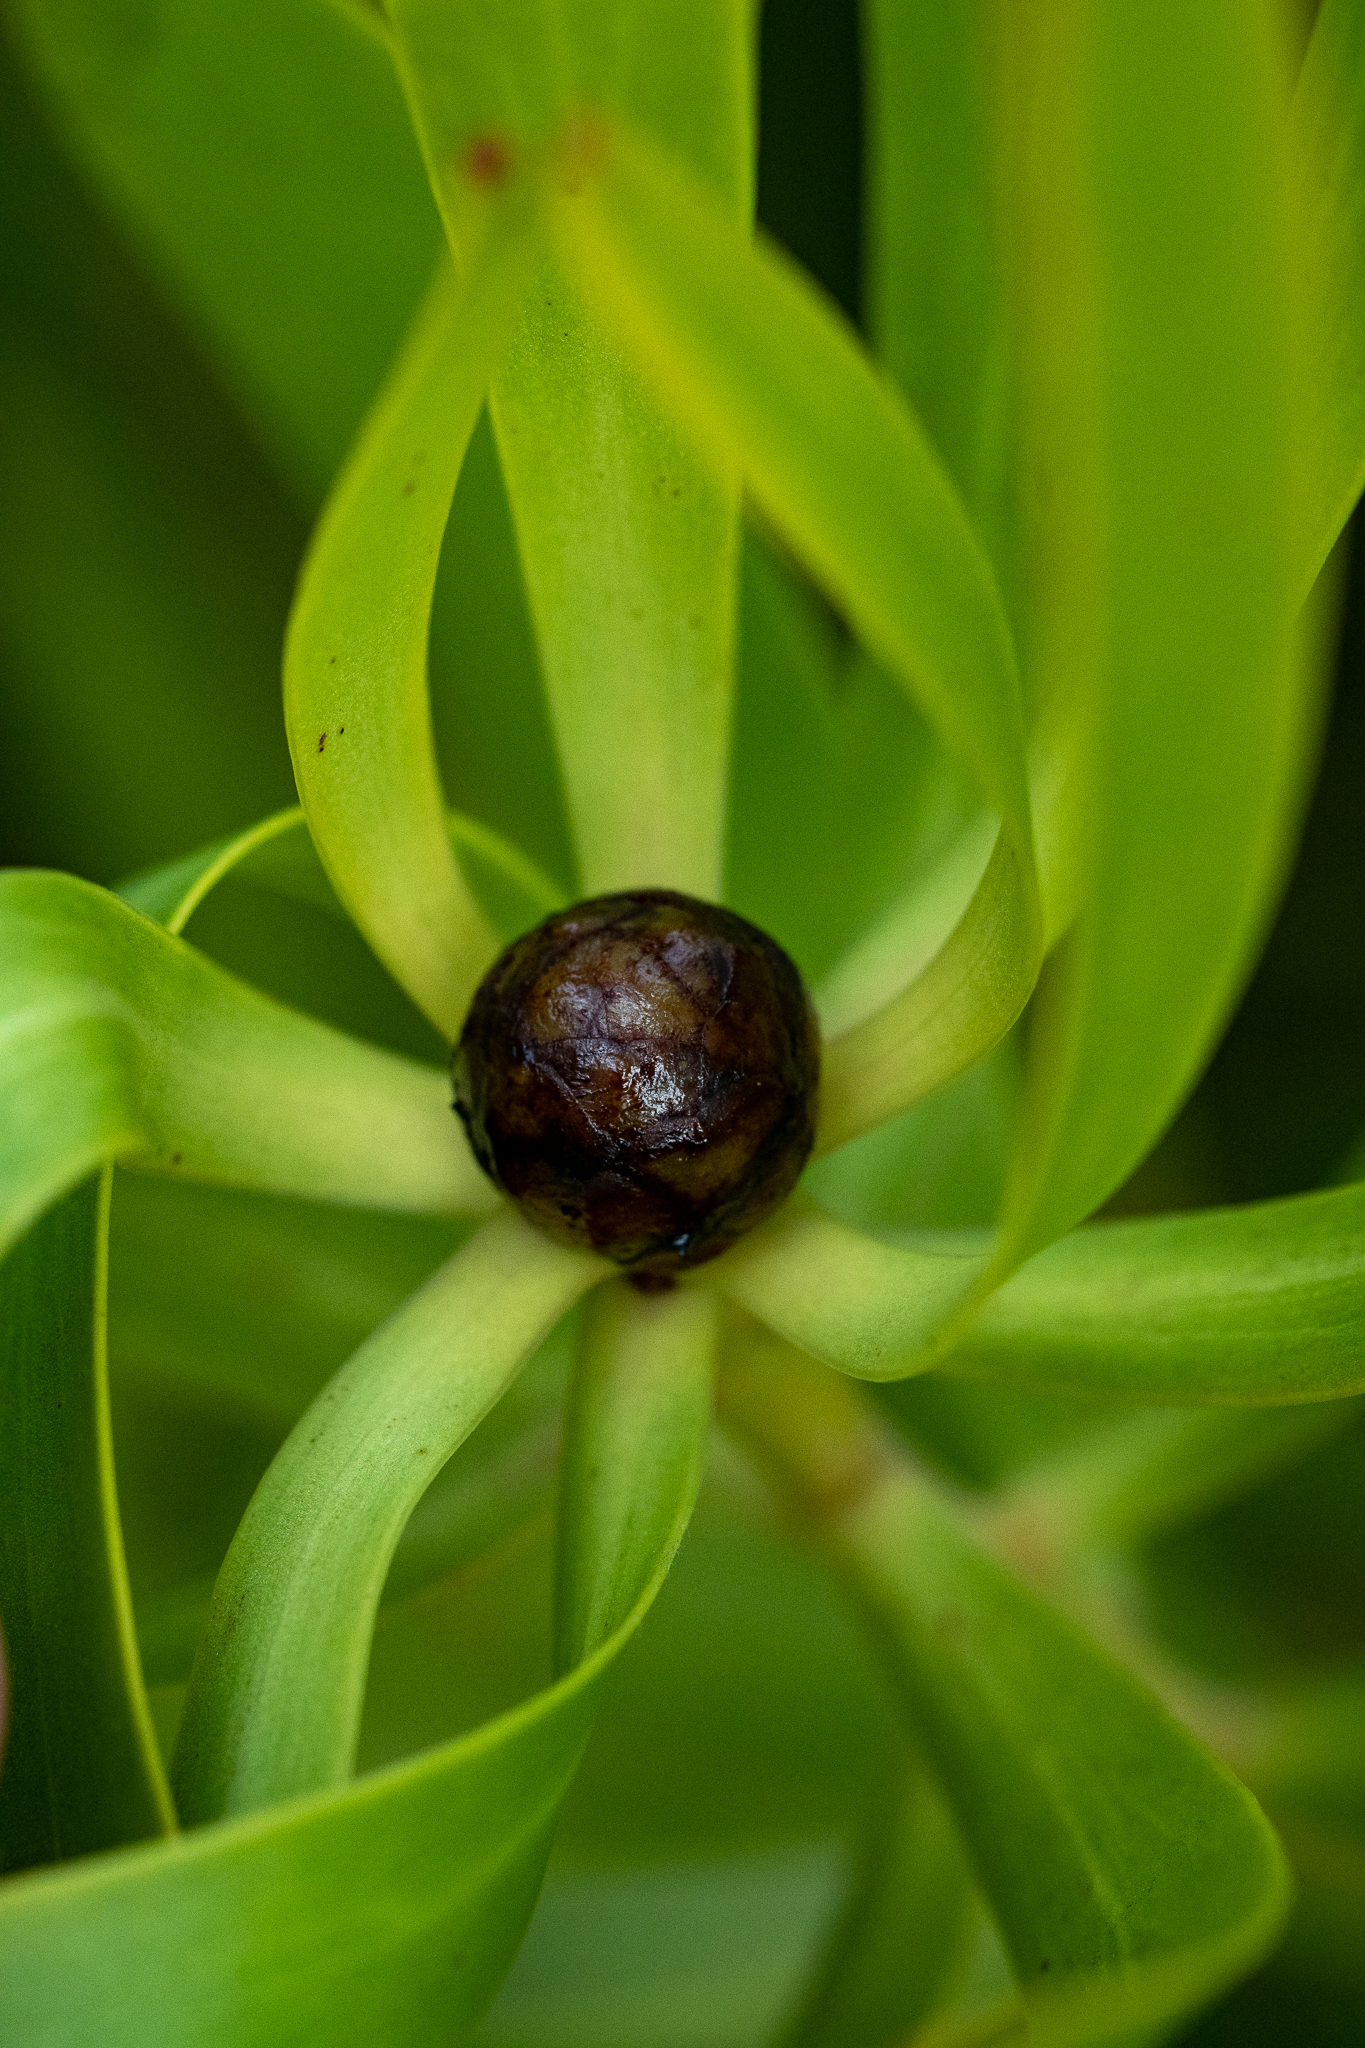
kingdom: Plantae
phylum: Tracheophyta
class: Magnoliopsida
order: Proteales
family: Proteaceae
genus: Leucadendron
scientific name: Leucadendron microcephalum
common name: Oilbract conebush
